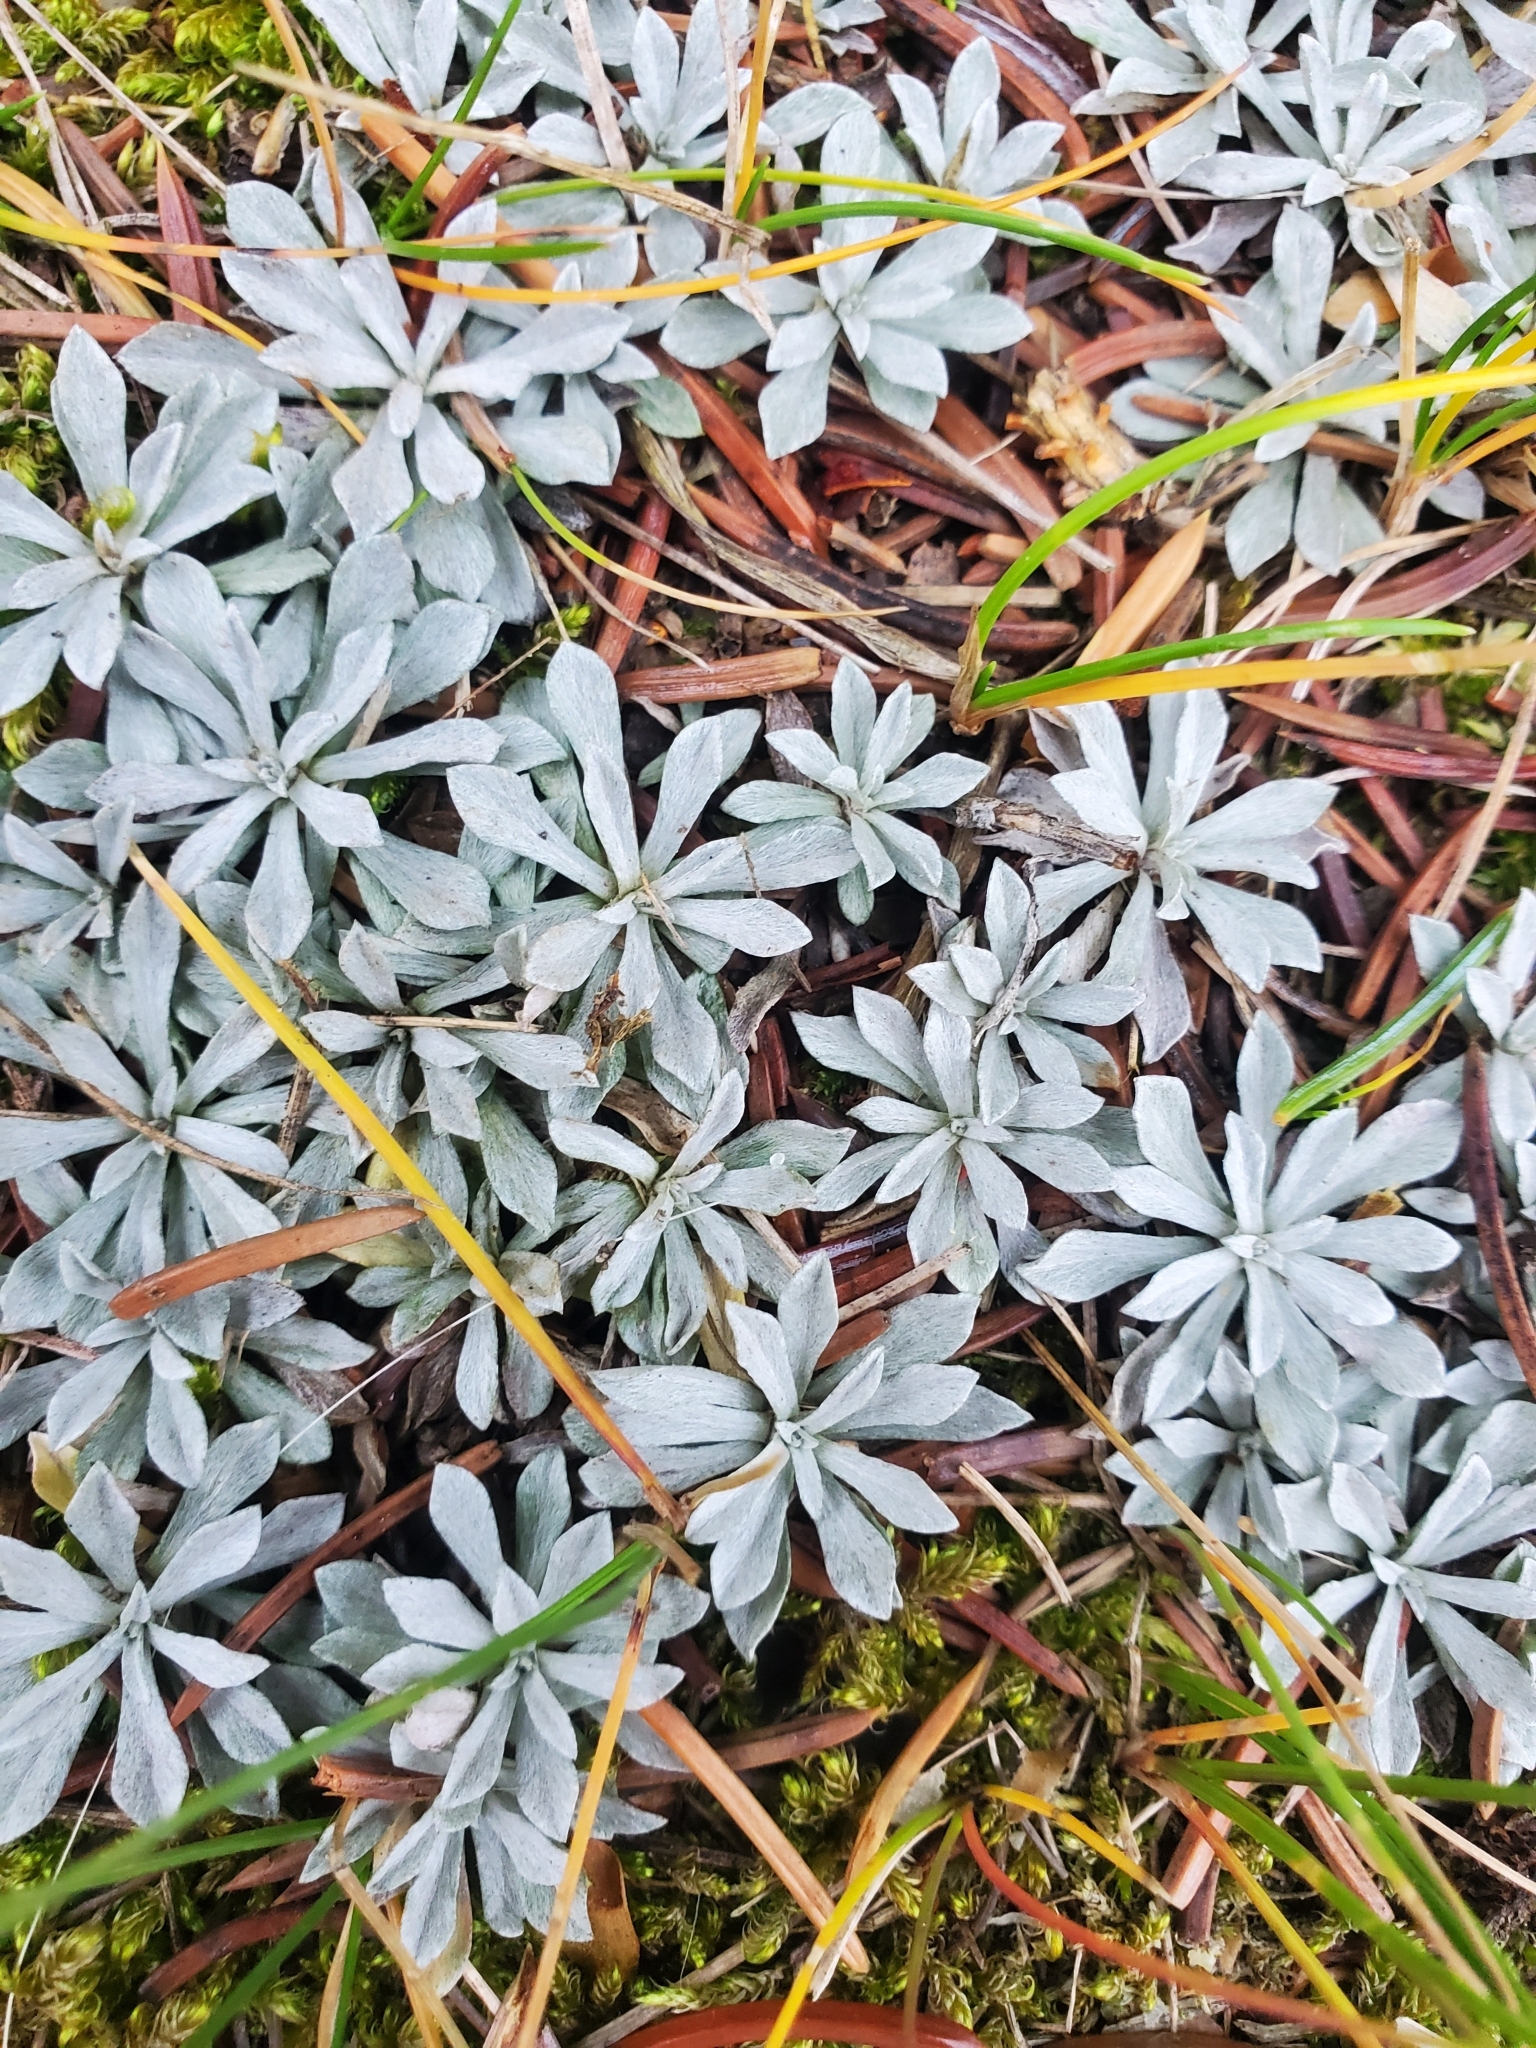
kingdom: Plantae
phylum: Tracheophyta
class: Magnoliopsida
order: Asterales
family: Asteraceae
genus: Antennaria
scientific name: Antennaria
